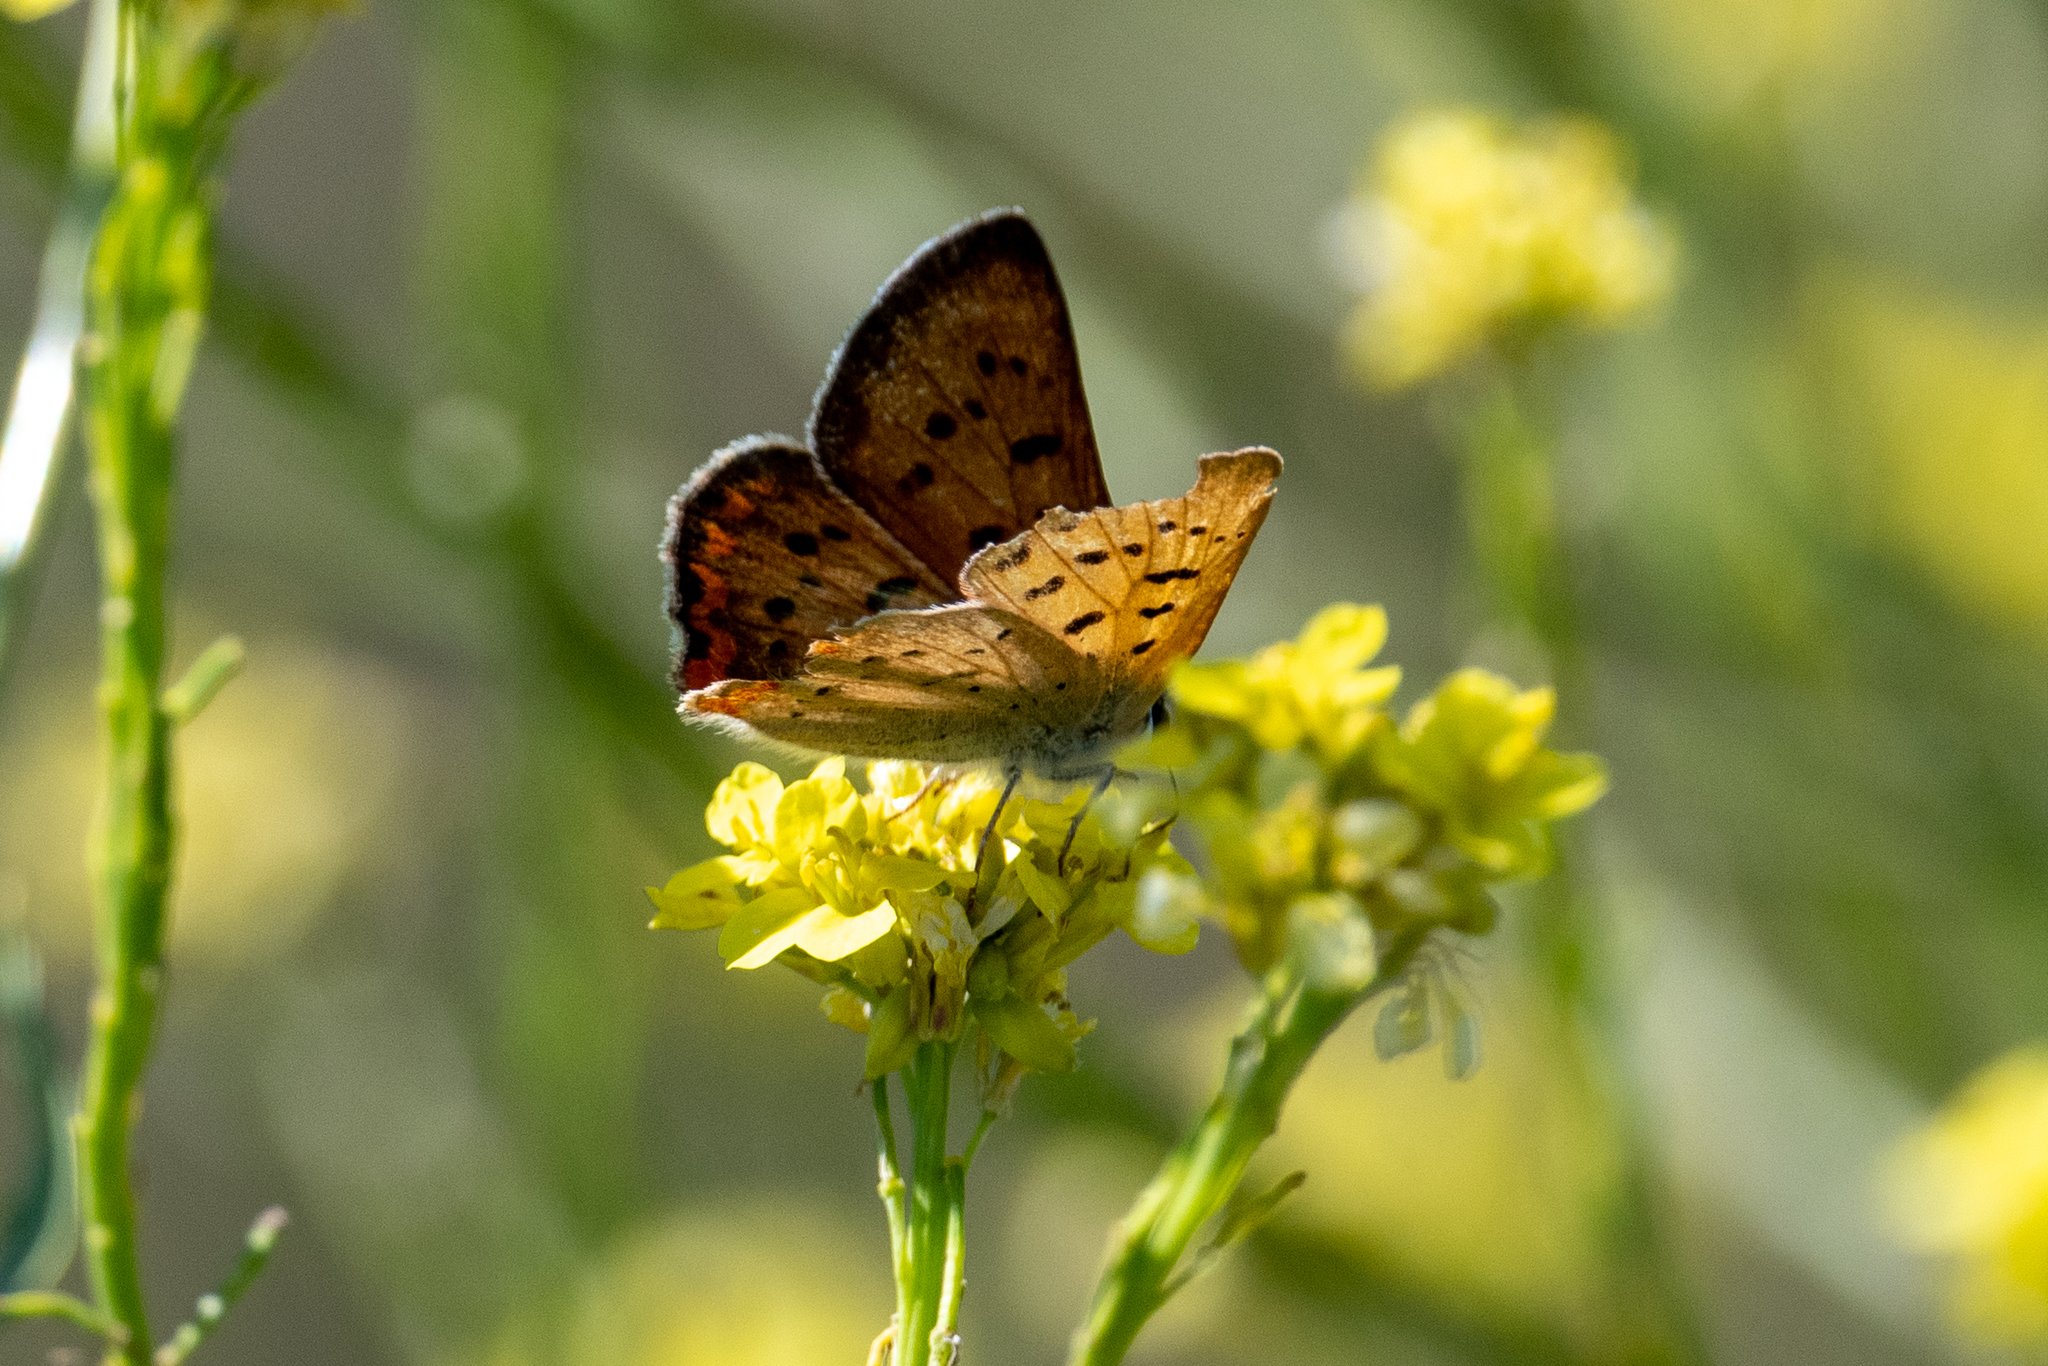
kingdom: Animalia
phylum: Arthropoda
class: Insecta
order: Lepidoptera
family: Lycaenidae
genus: Tharsalea
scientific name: Tharsalea helloides
